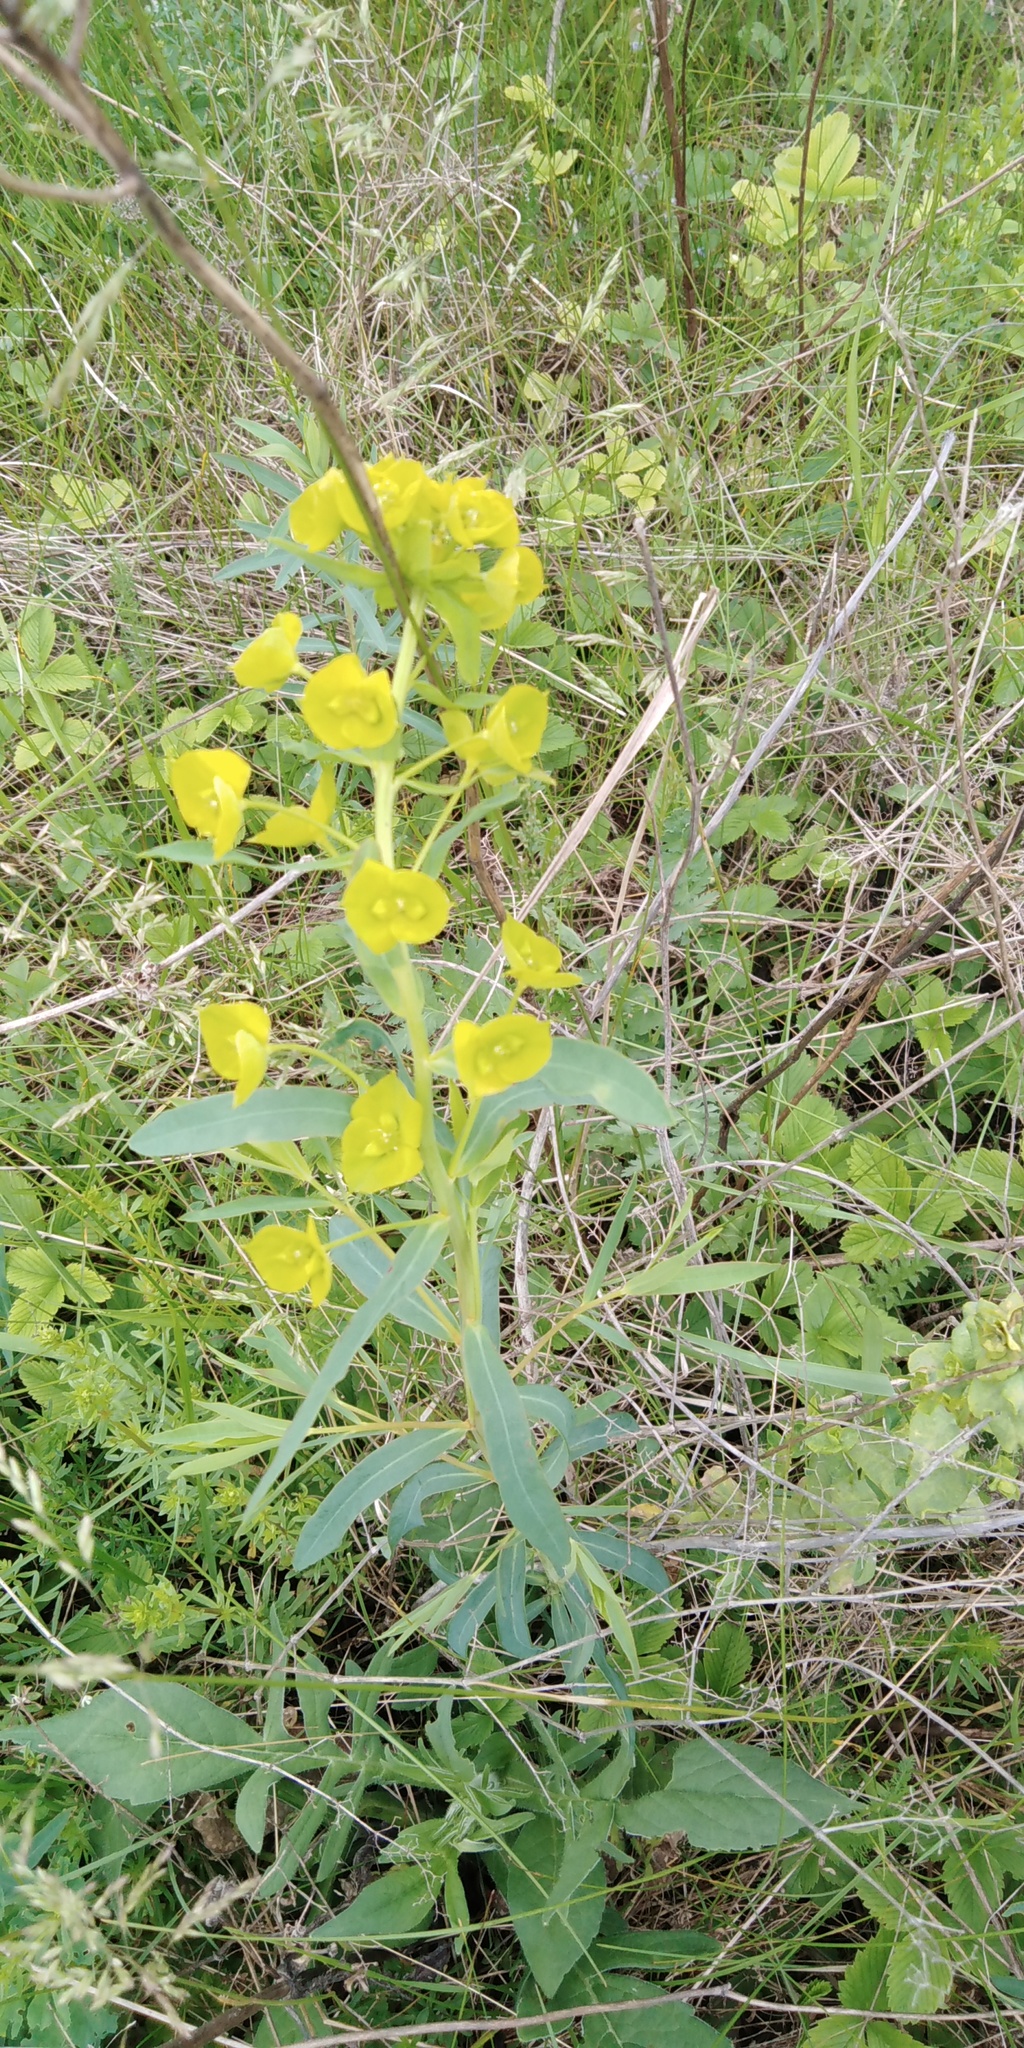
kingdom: Plantae
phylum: Tracheophyta
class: Magnoliopsida
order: Malpighiales
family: Euphorbiaceae
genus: Euphorbia
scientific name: Euphorbia virgata
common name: Leafy spurge
